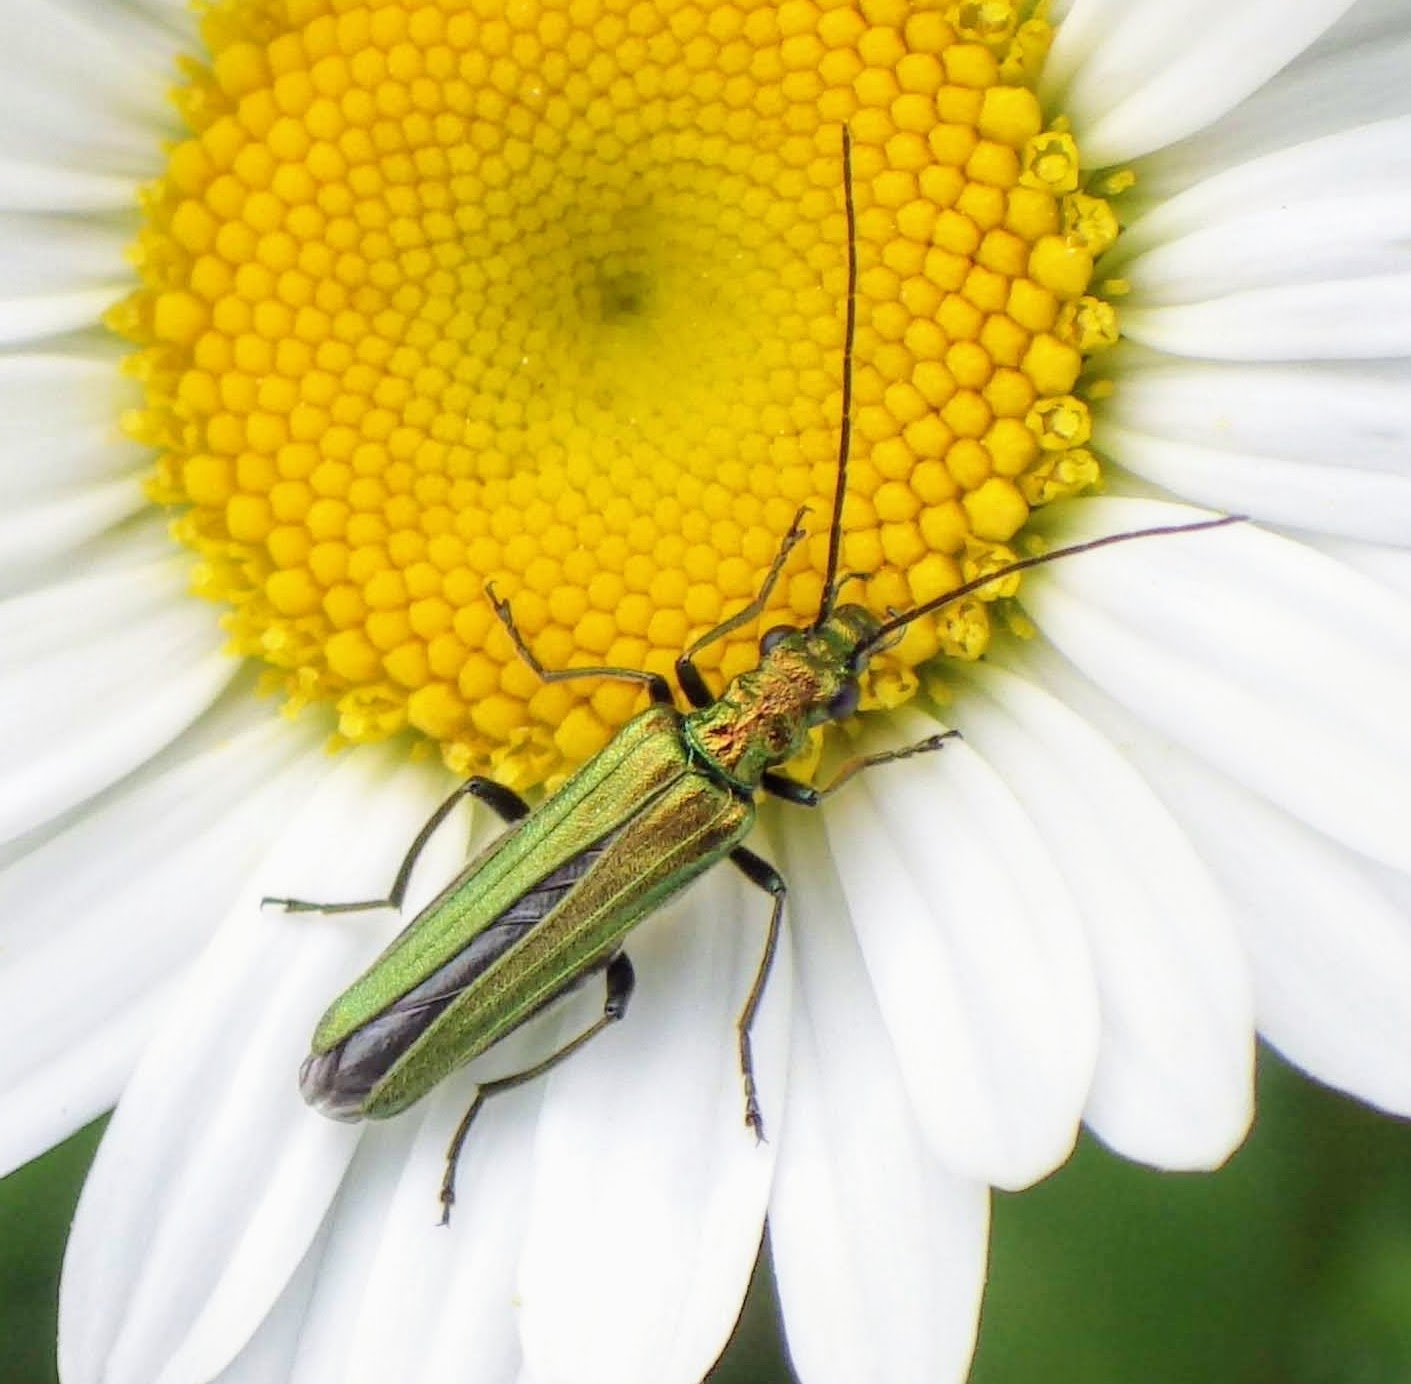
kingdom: Animalia
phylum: Arthropoda
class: Insecta
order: Coleoptera
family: Oedemeridae
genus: Oedemera
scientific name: Oedemera nobilis
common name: Swollen-thighed beetle
